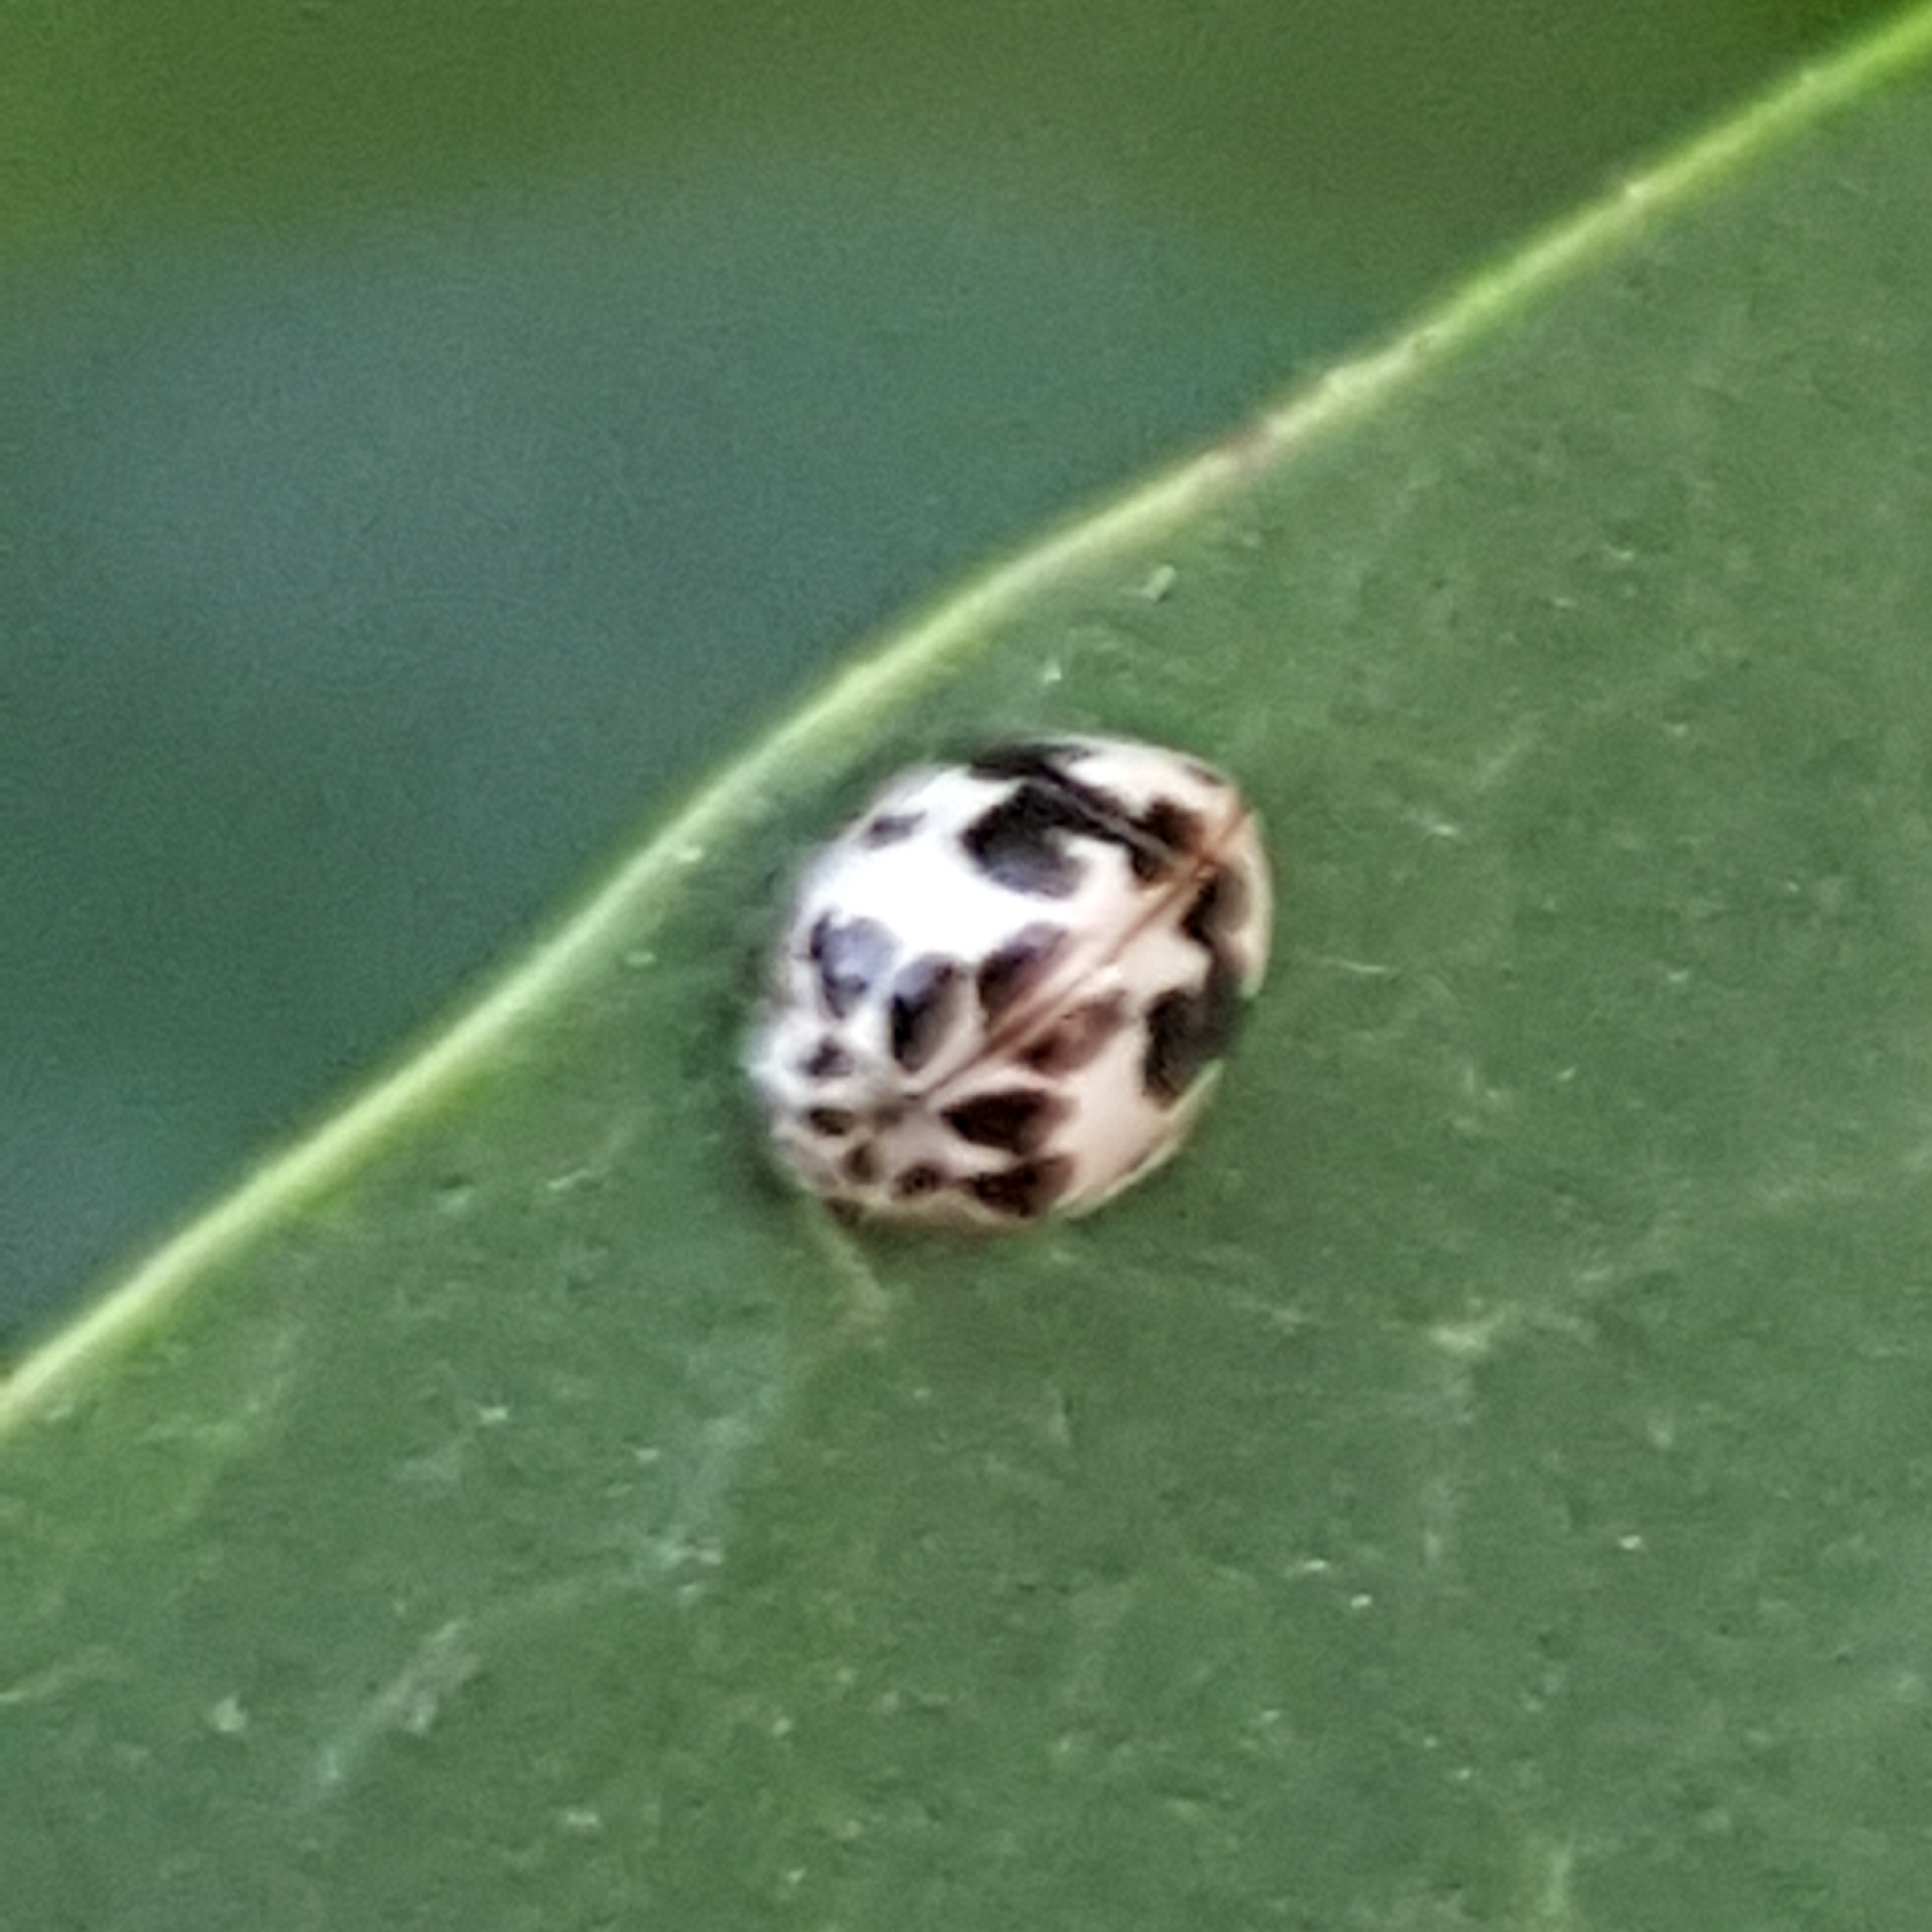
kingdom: Animalia
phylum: Arthropoda
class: Insecta
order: Coleoptera
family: Coccinellidae
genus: Psyllobora
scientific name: Psyllobora borealis
